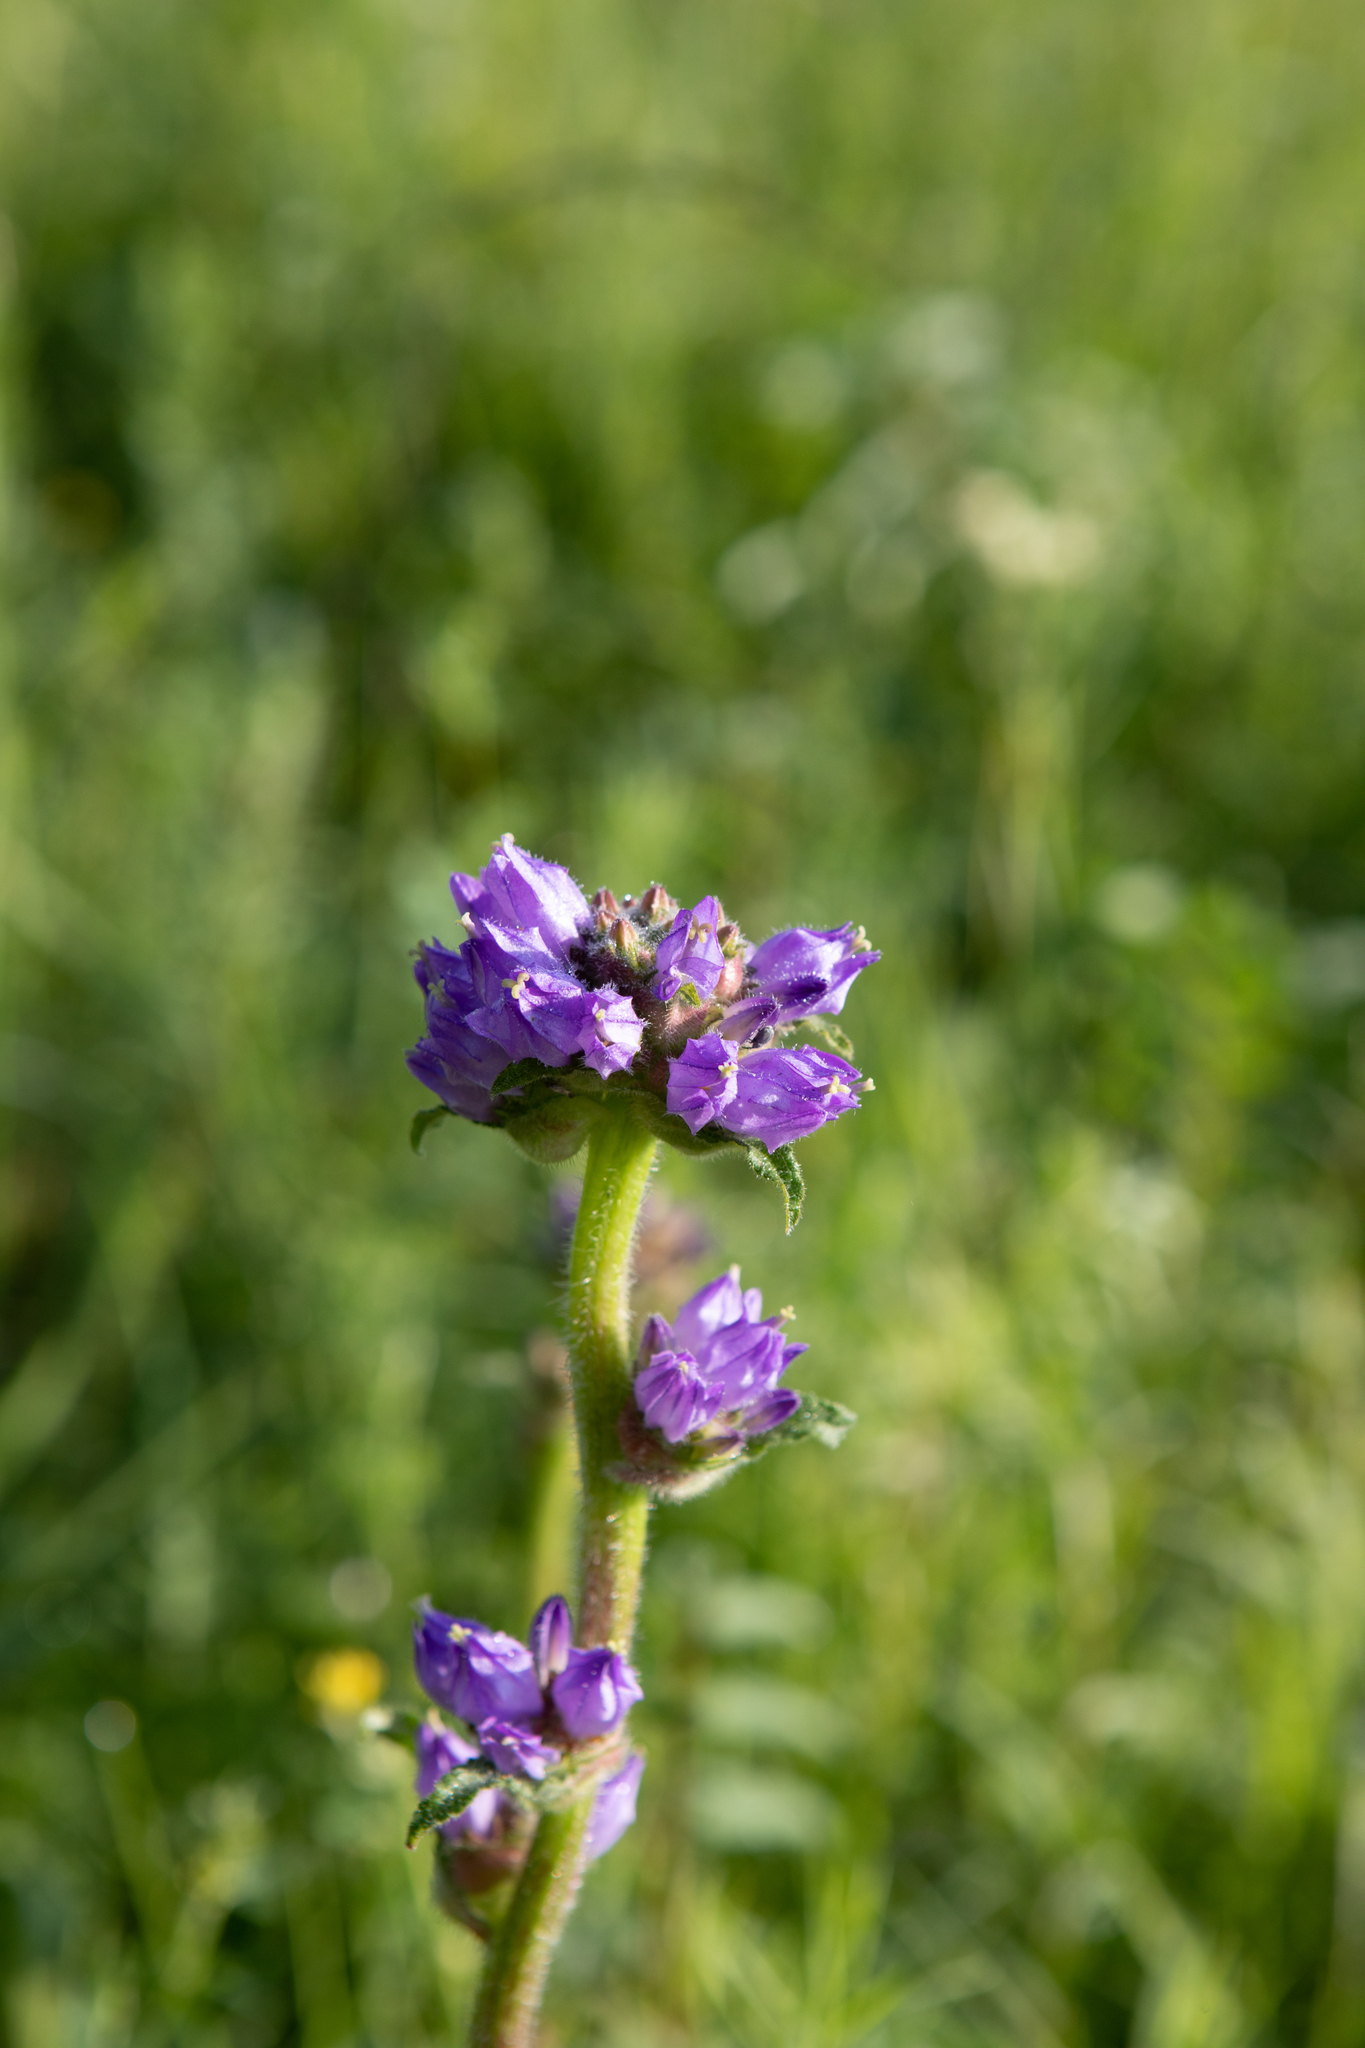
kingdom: Plantae
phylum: Tracheophyta
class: Magnoliopsida
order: Asterales
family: Campanulaceae
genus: Campanula
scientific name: Campanula cervicaria
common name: Bristly bellflower
